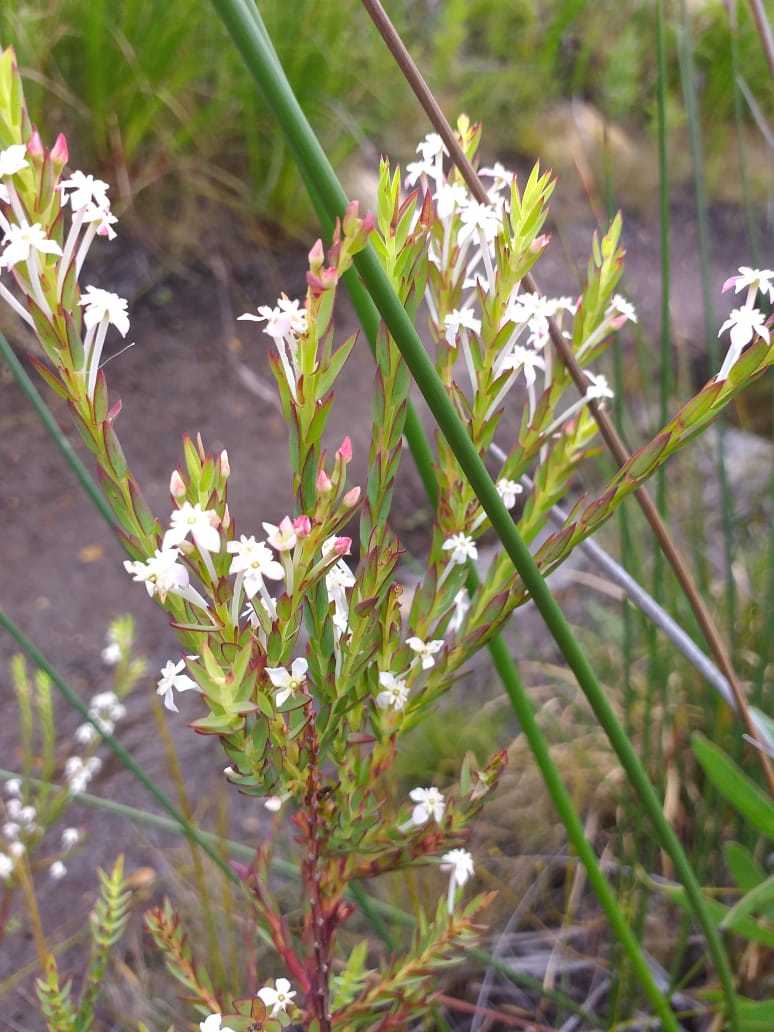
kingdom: Plantae
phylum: Tracheophyta
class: Magnoliopsida
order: Malvales
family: Thymelaeaceae
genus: Struthiola
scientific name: Struthiola myrsinites
